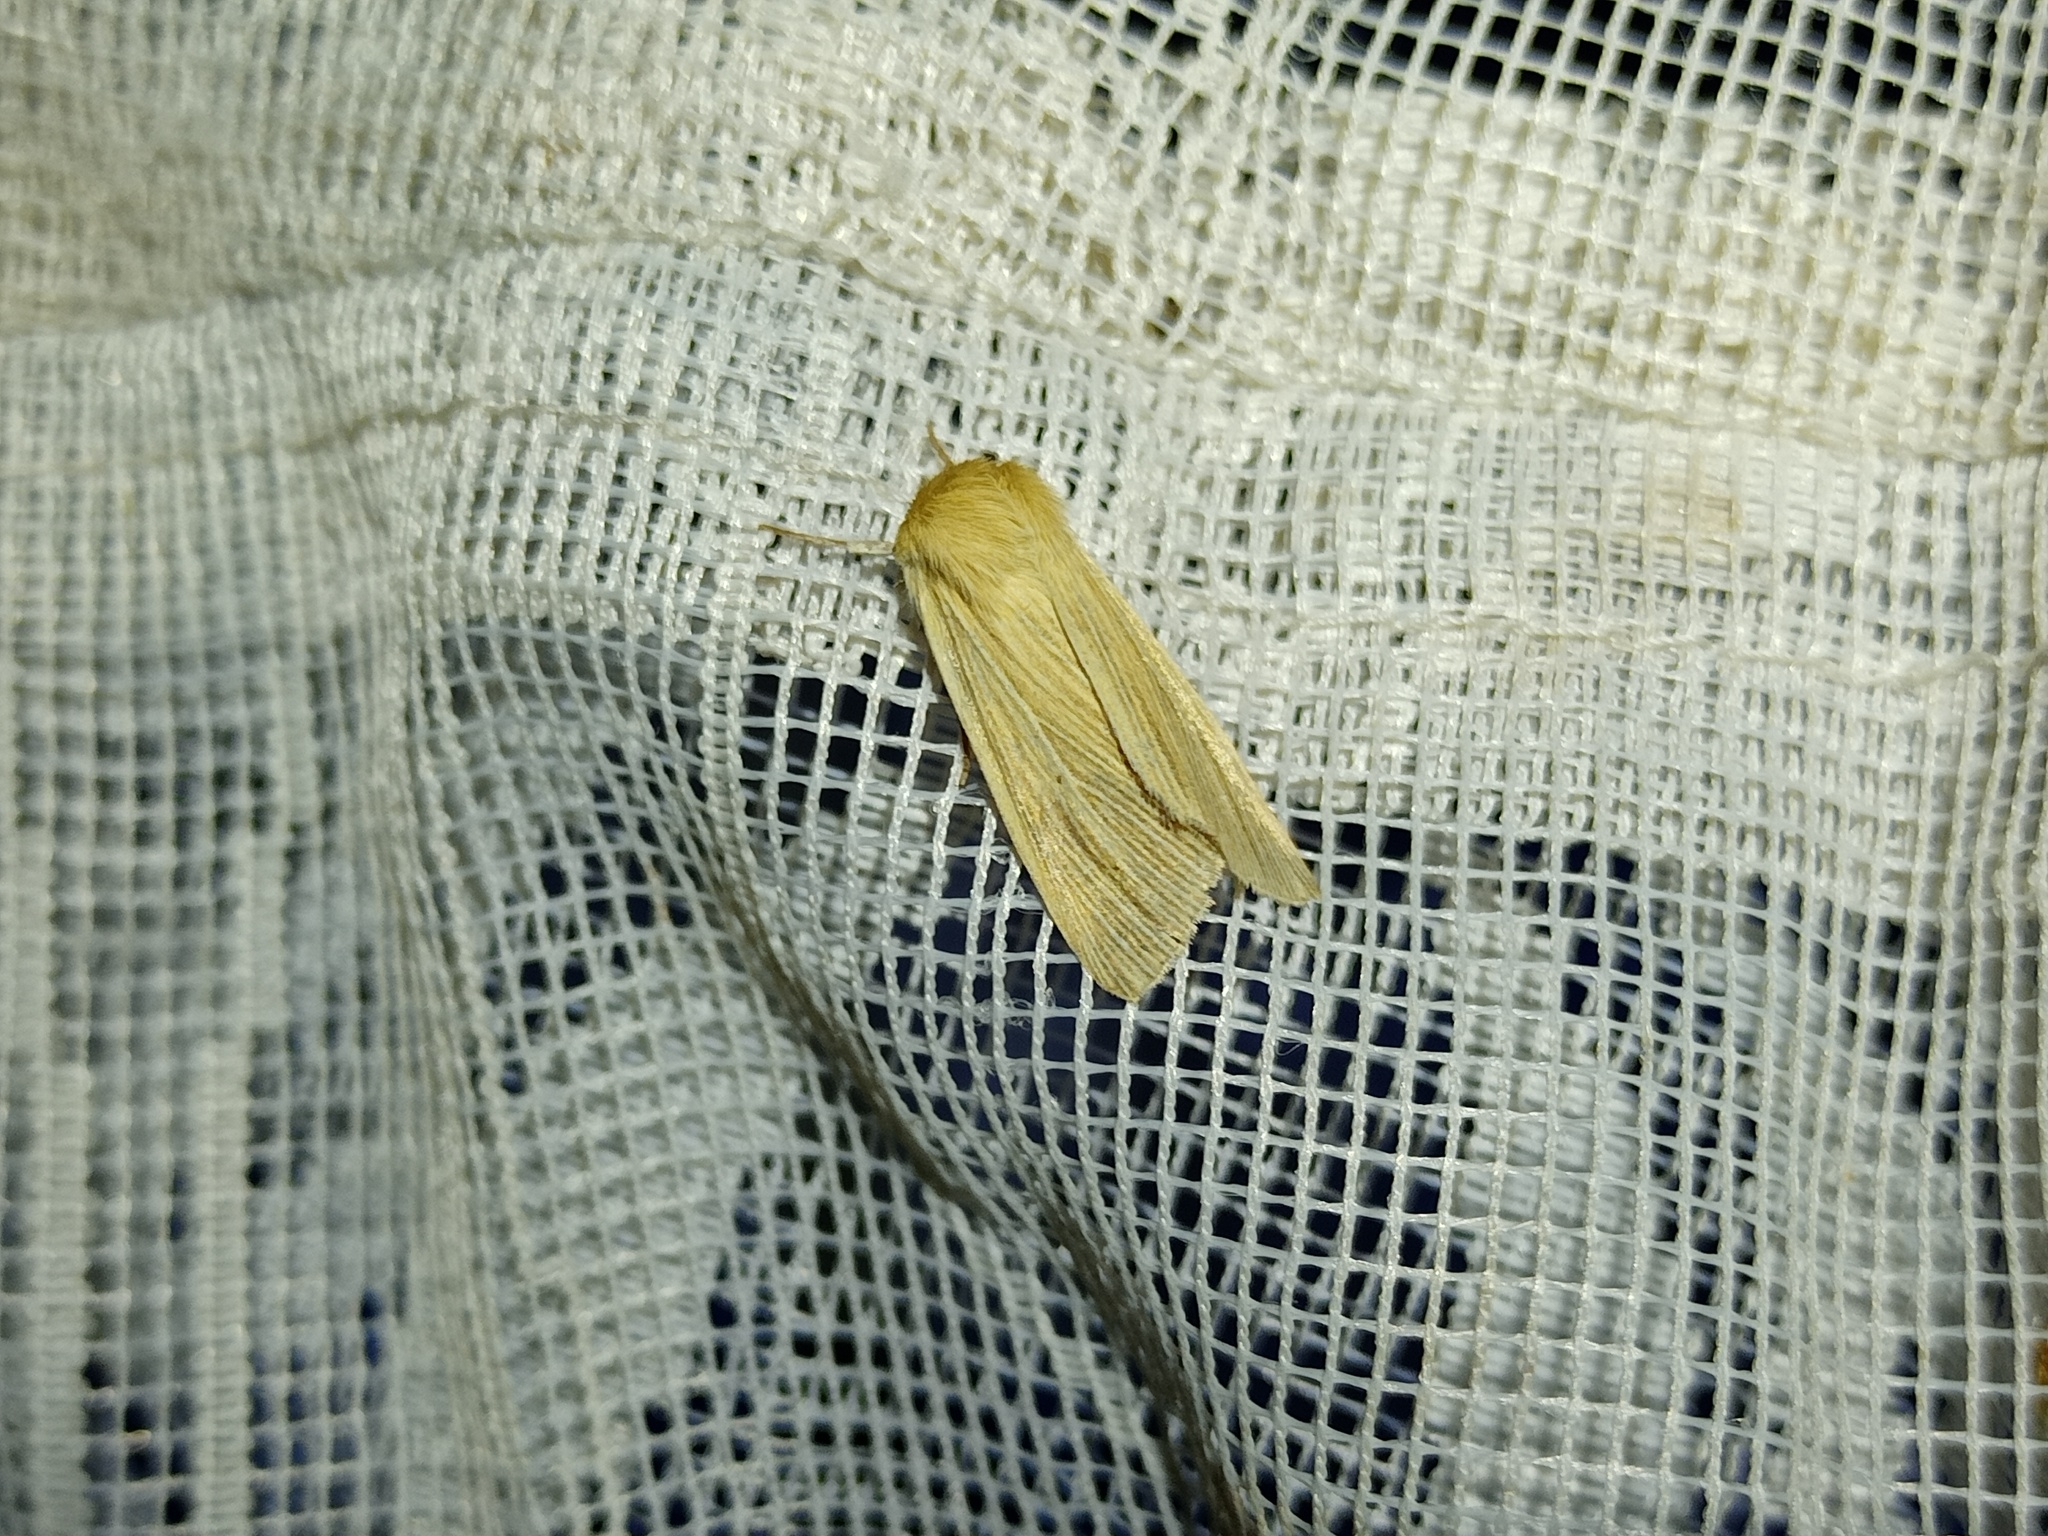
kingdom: Animalia
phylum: Arthropoda
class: Insecta
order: Lepidoptera
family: Noctuidae
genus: Mythimna
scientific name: Mythimna pallens
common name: Common wainscot
